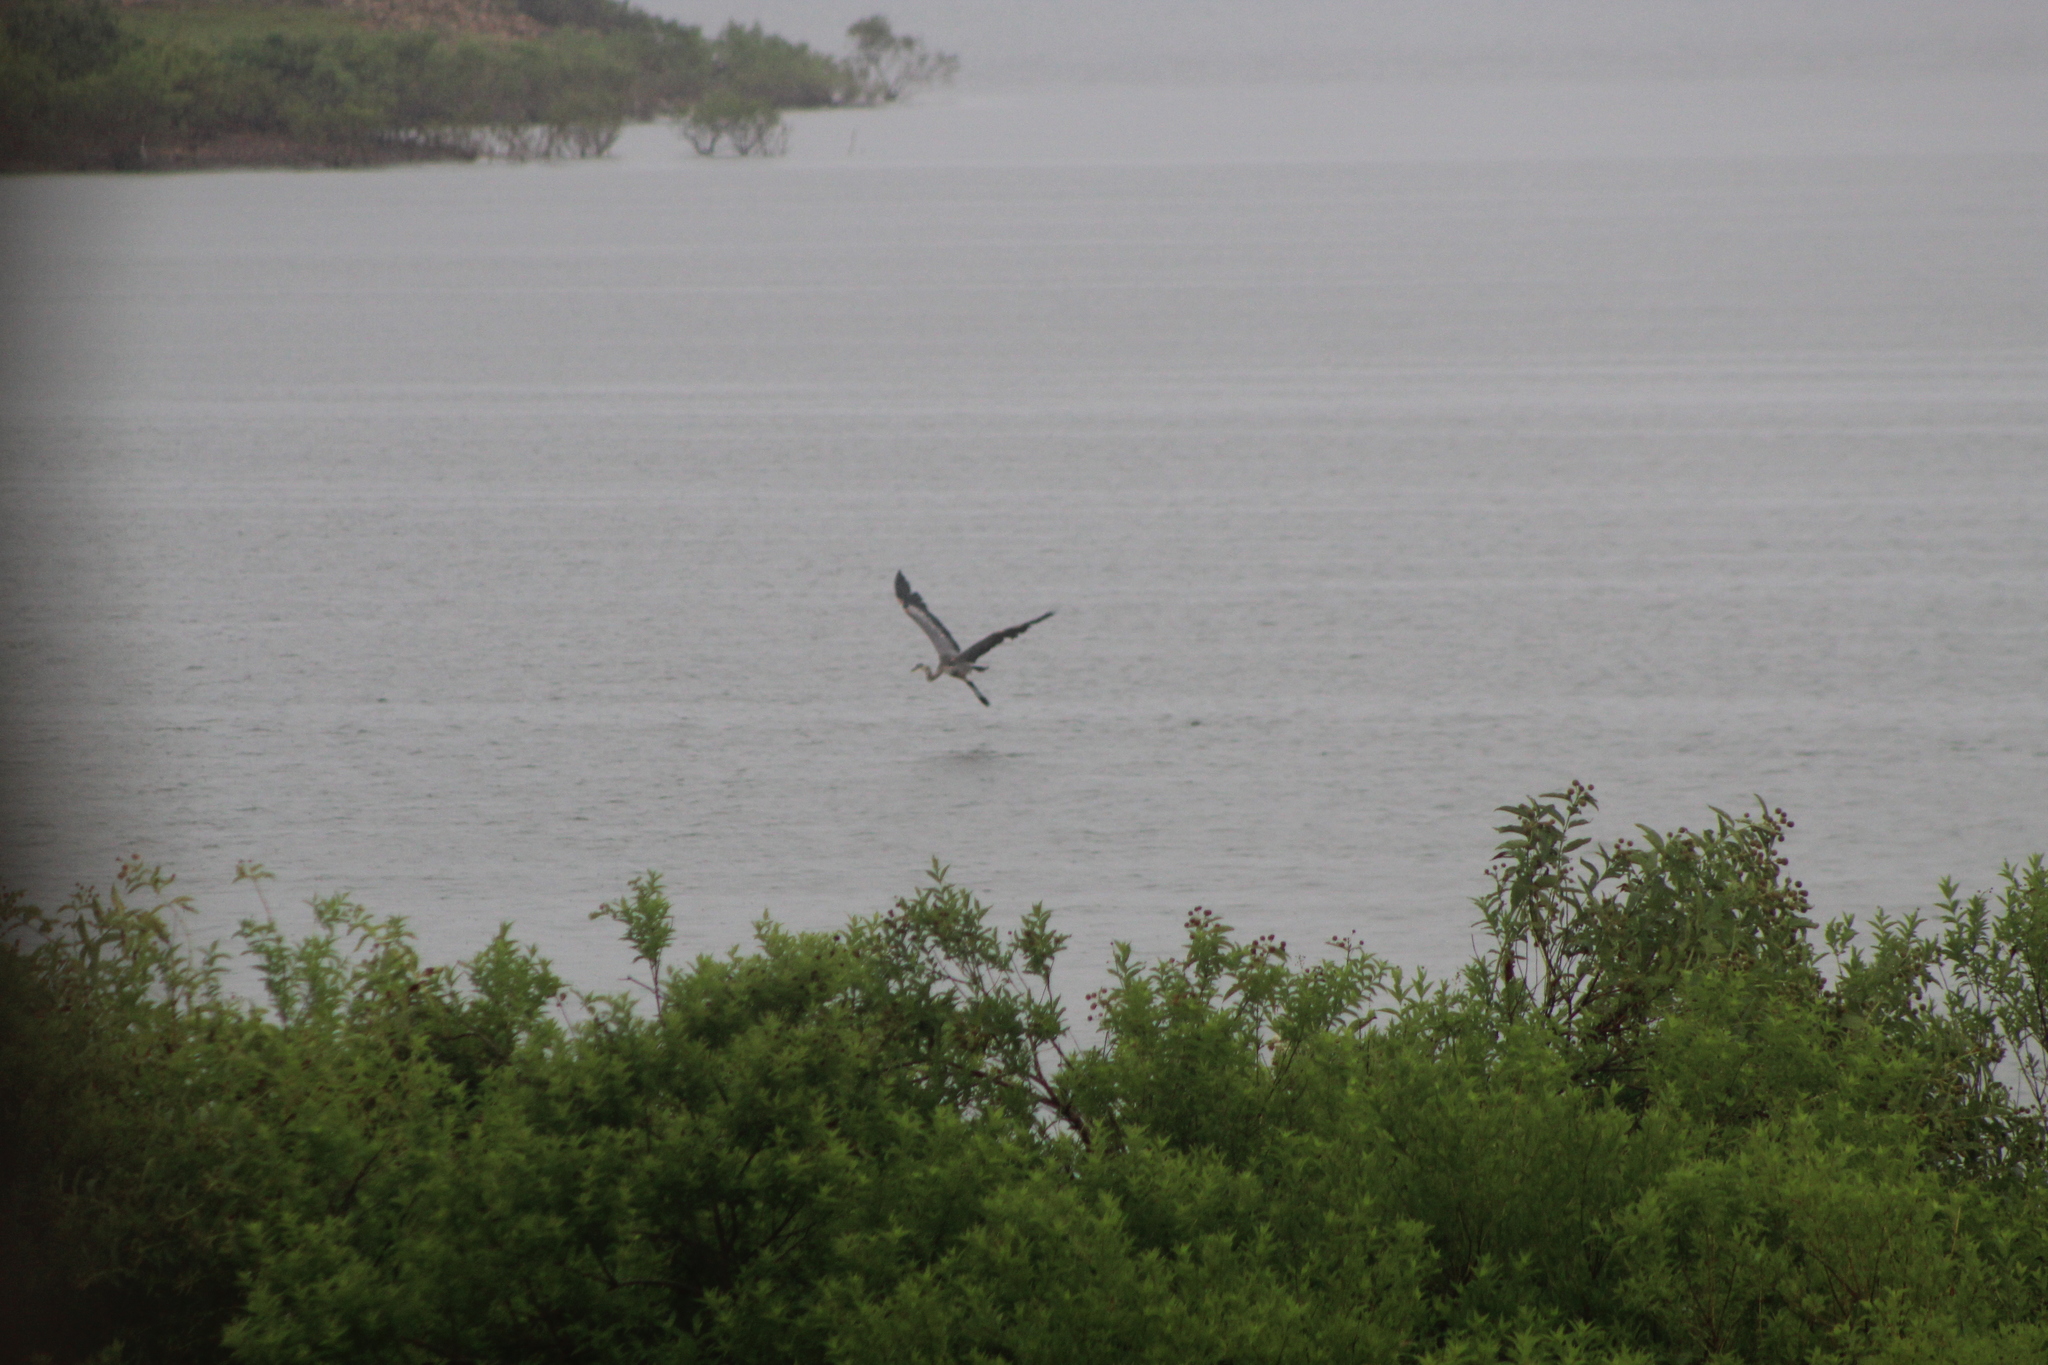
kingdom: Animalia
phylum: Chordata
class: Aves
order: Pelecaniformes
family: Ardeidae
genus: Ardea
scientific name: Ardea herodias
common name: Great blue heron
